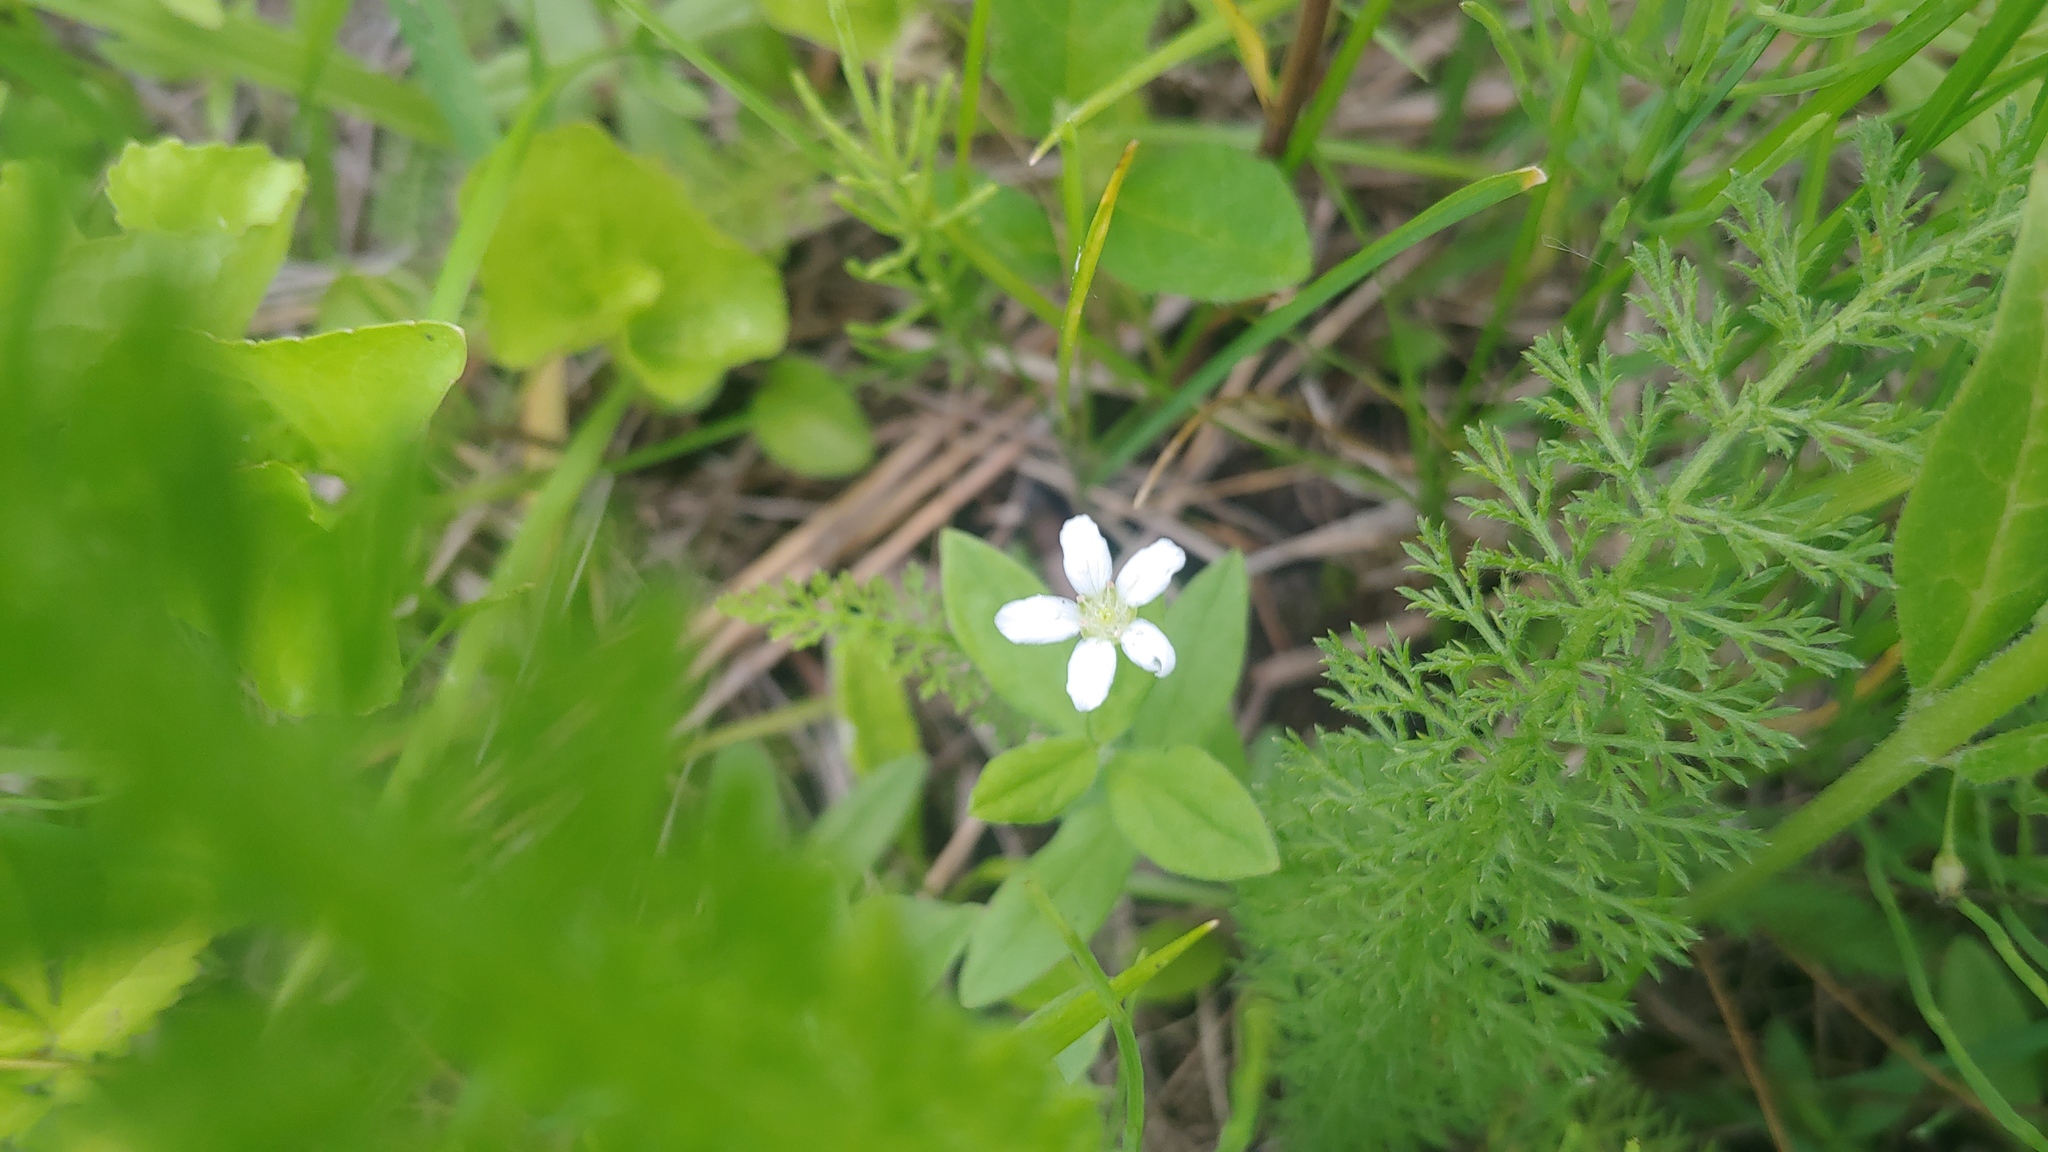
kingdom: Plantae
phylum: Tracheophyta
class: Magnoliopsida
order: Caryophyllales
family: Caryophyllaceae
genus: Moehringia
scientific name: Moehringia lateriflora
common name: Blunt-leaved sandwort
